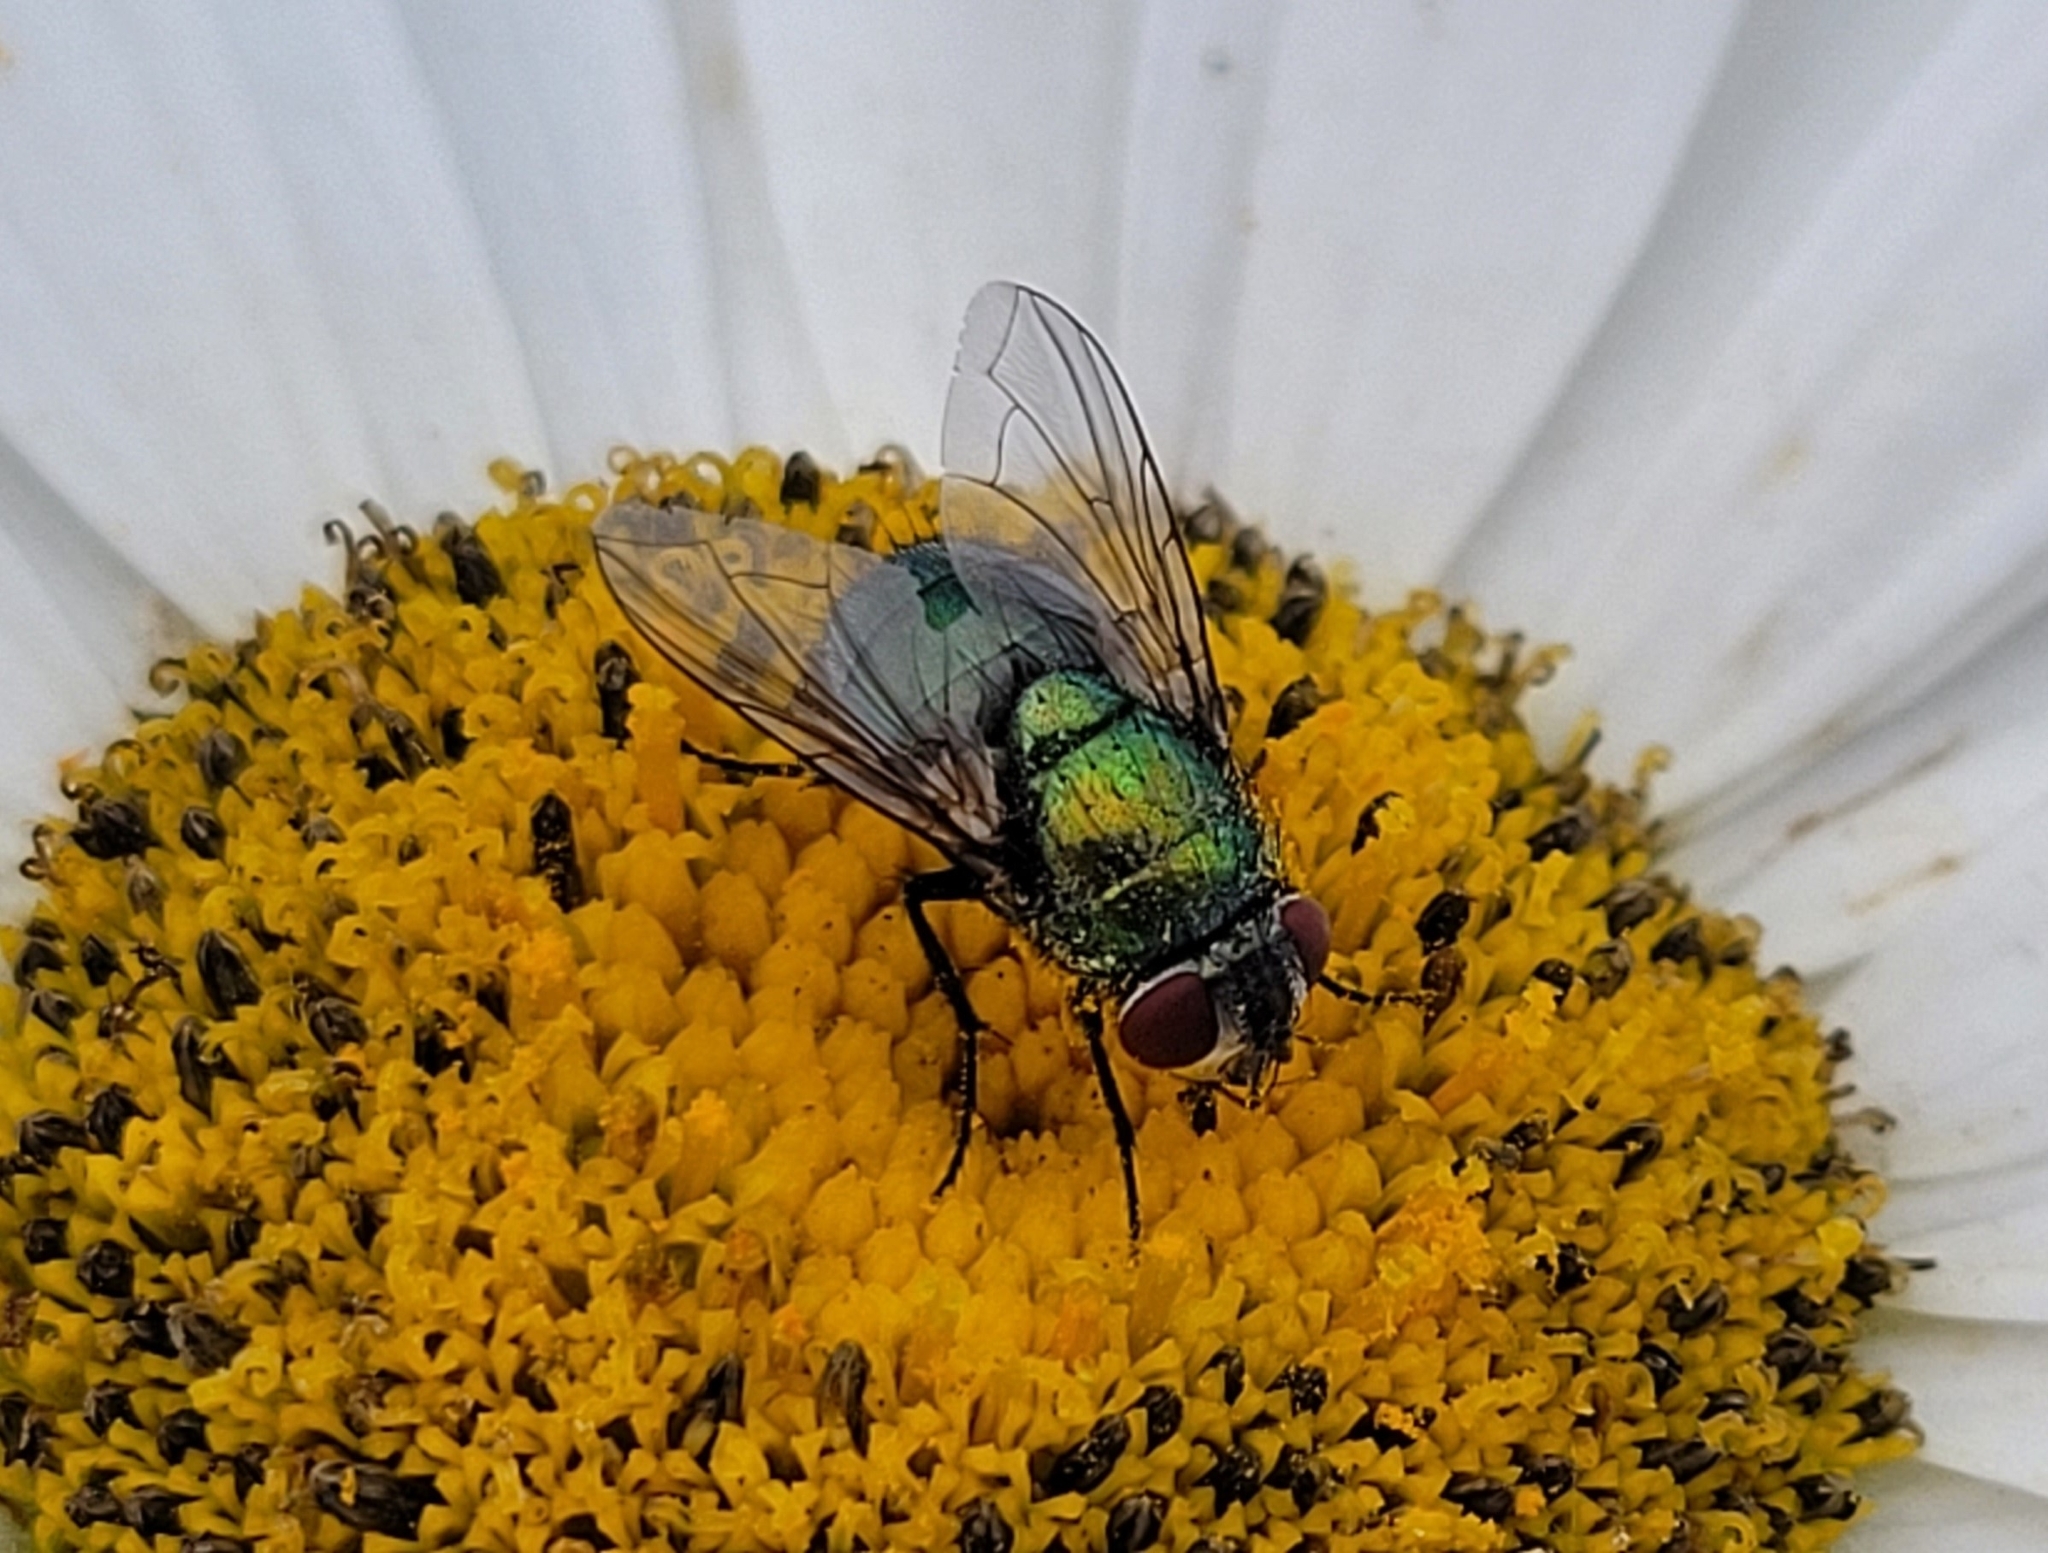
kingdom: Animalia
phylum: Arthropoda
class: Insecta
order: Diptera
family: Calliphoridae
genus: Lucilia
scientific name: Lucilia
